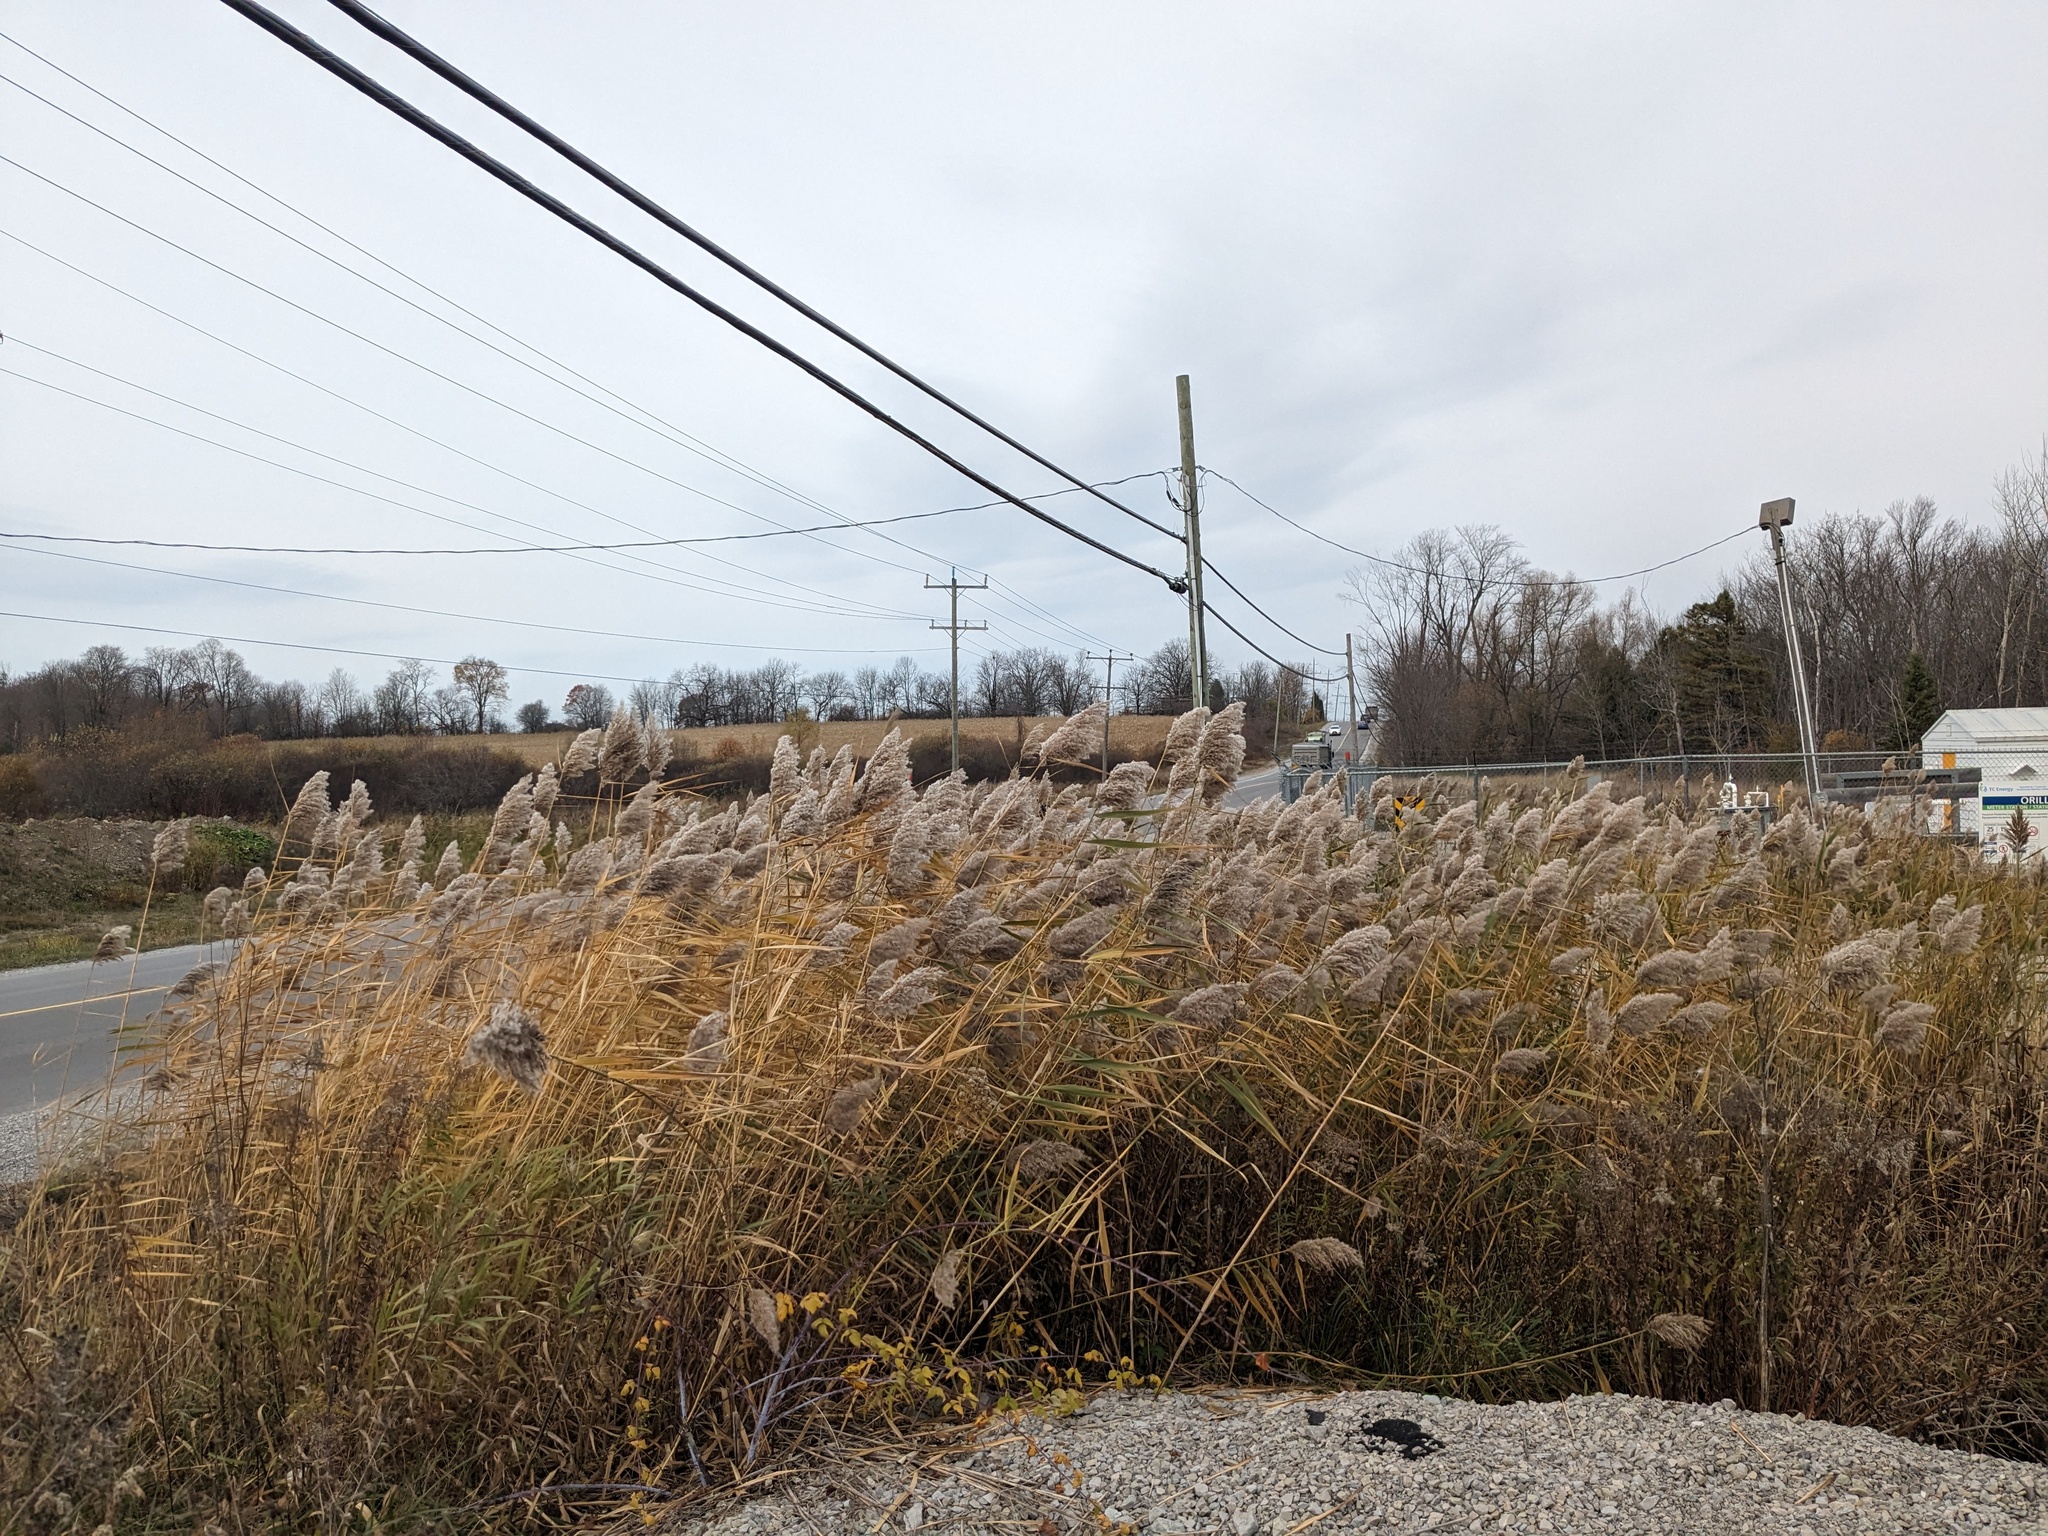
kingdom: Plantae
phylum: Tracheophyta
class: Liliopsida
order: Poales
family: Poaceae
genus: Phragmites
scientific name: Phragmites australis
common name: Common reed
